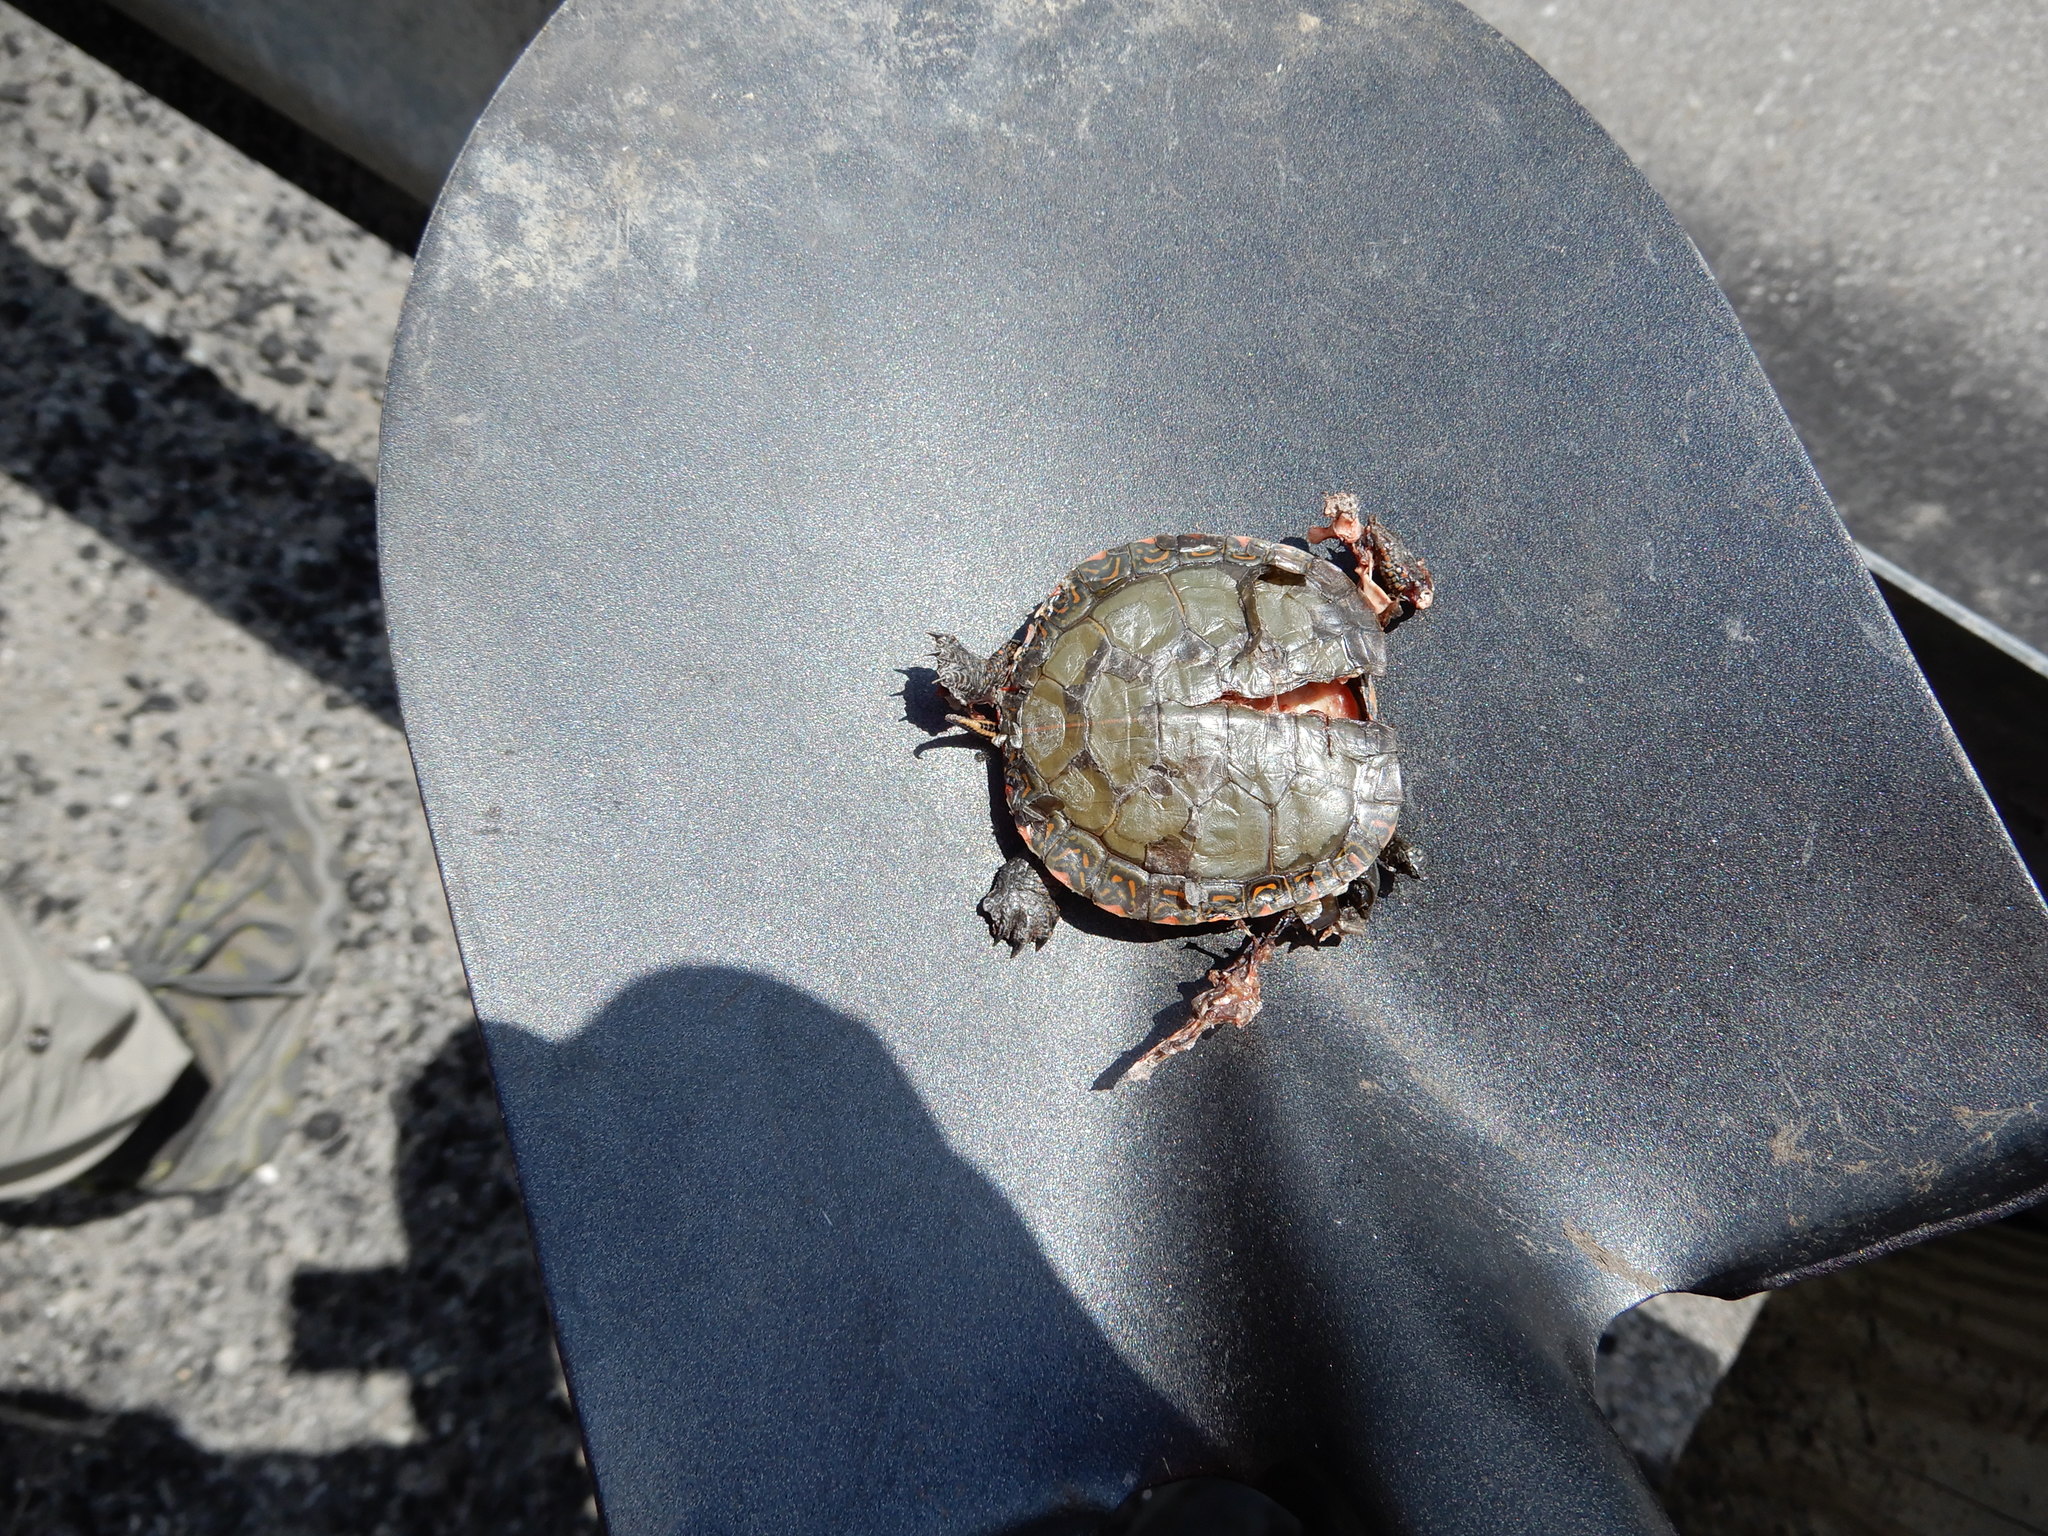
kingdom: Animalia
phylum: Chordata
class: Testudines
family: Emydidae
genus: Chrysemys
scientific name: Chrysemys picta
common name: Painted turtle
